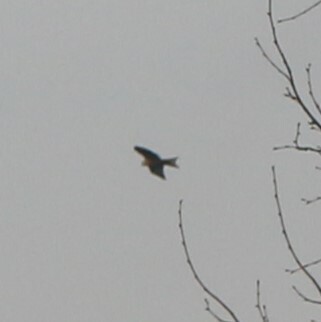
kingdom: Animalia
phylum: Chordata
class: Aves
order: Accipitriformes
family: Accipitridae
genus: Milvus
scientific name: Milvus milvus
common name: Red kite
